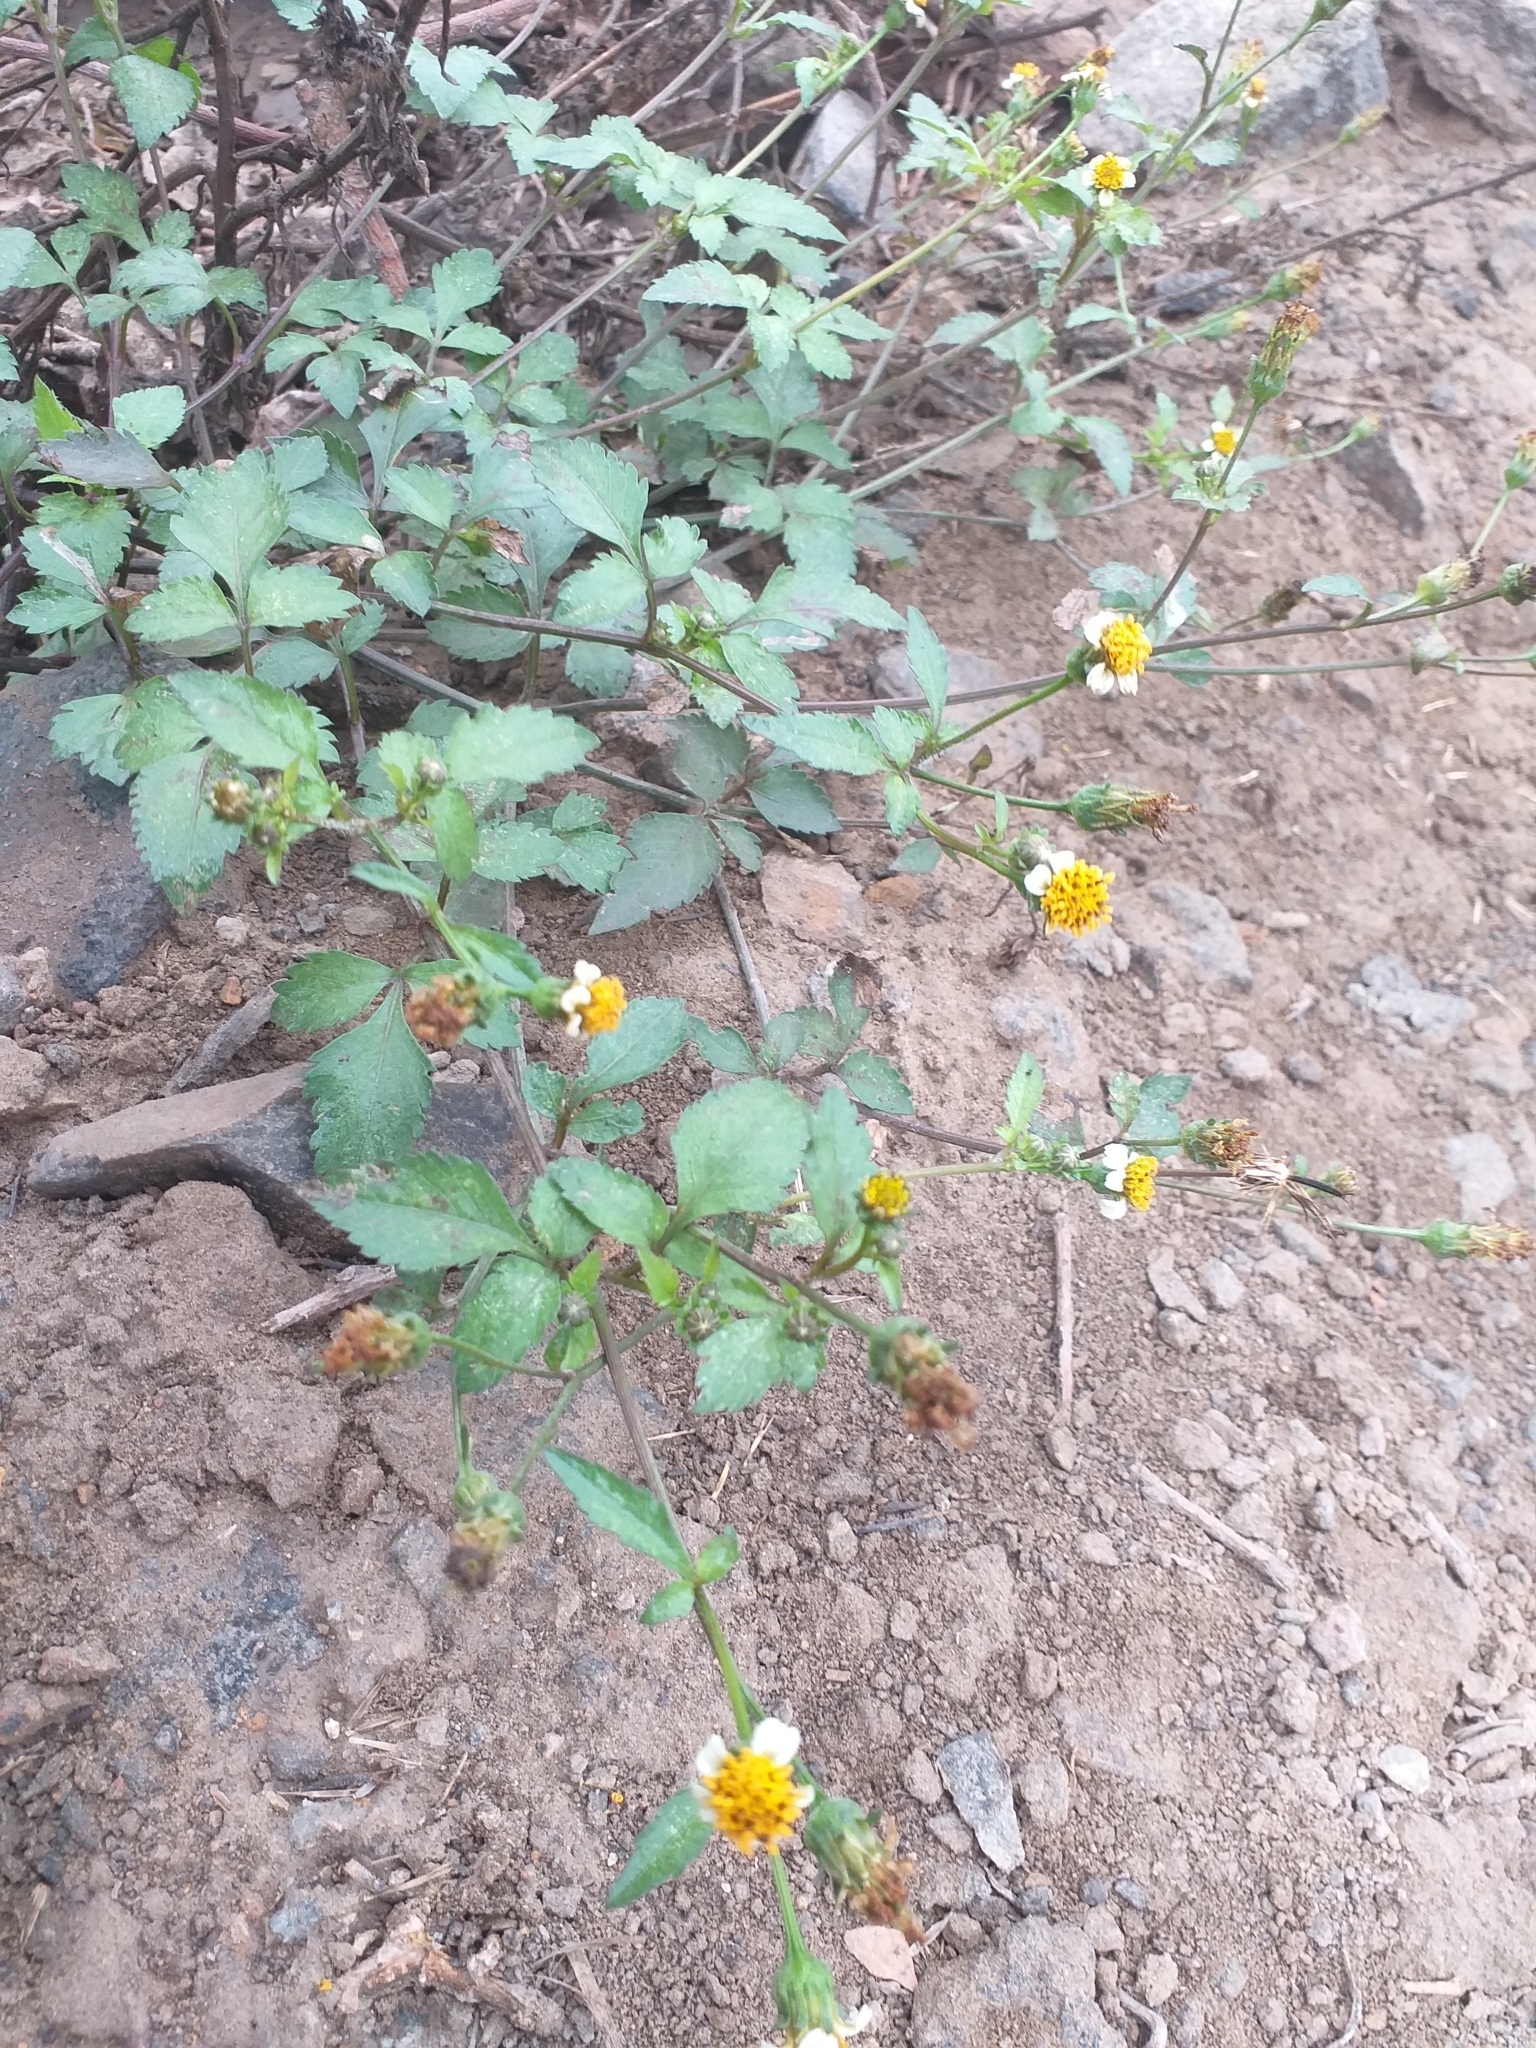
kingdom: Plantae
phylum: Tracheophyta
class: Magnoliopsida
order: Asterales
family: Asteraceae
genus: Bidens
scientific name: Bidens alba
